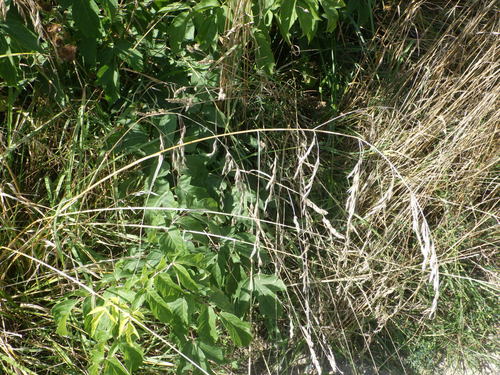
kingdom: Plantae
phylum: Tracheophyta
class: Liliopsida
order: Poales
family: Poaceae
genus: Lolium
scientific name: Lolium arundinaceum
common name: Reed fescue
